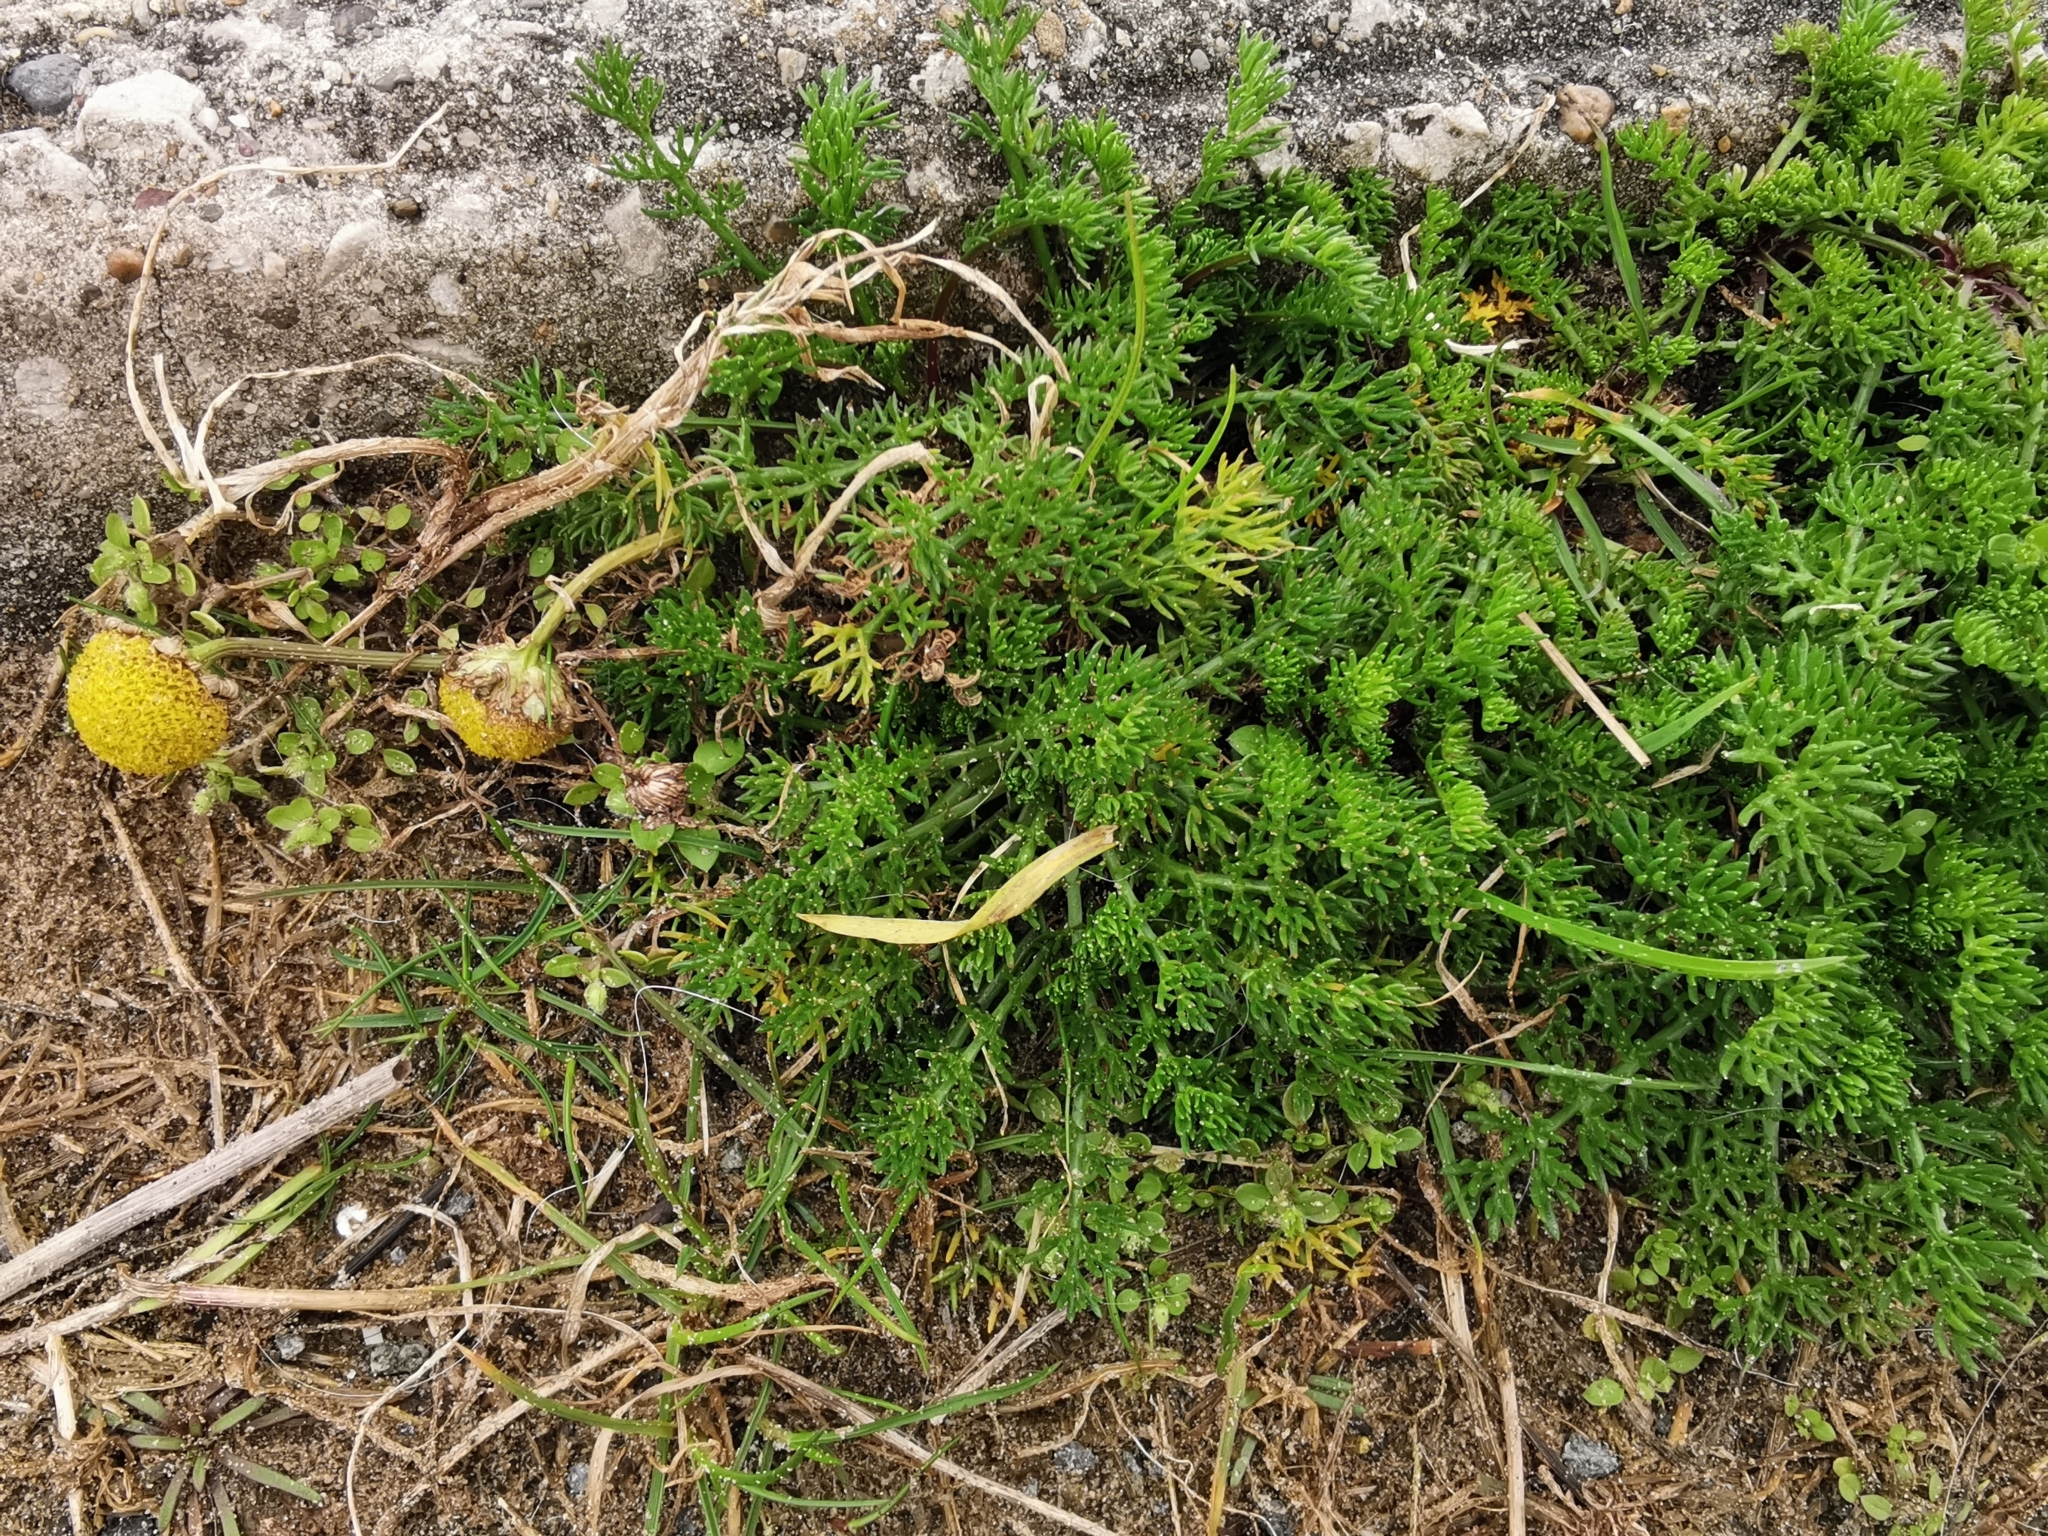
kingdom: Plantae
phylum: Tracheophyta
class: Magnoliopsida
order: Asterales
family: Asteraceae
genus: Tripleurospermum
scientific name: Tripleurospermum maritimum
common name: Sea mayweed
